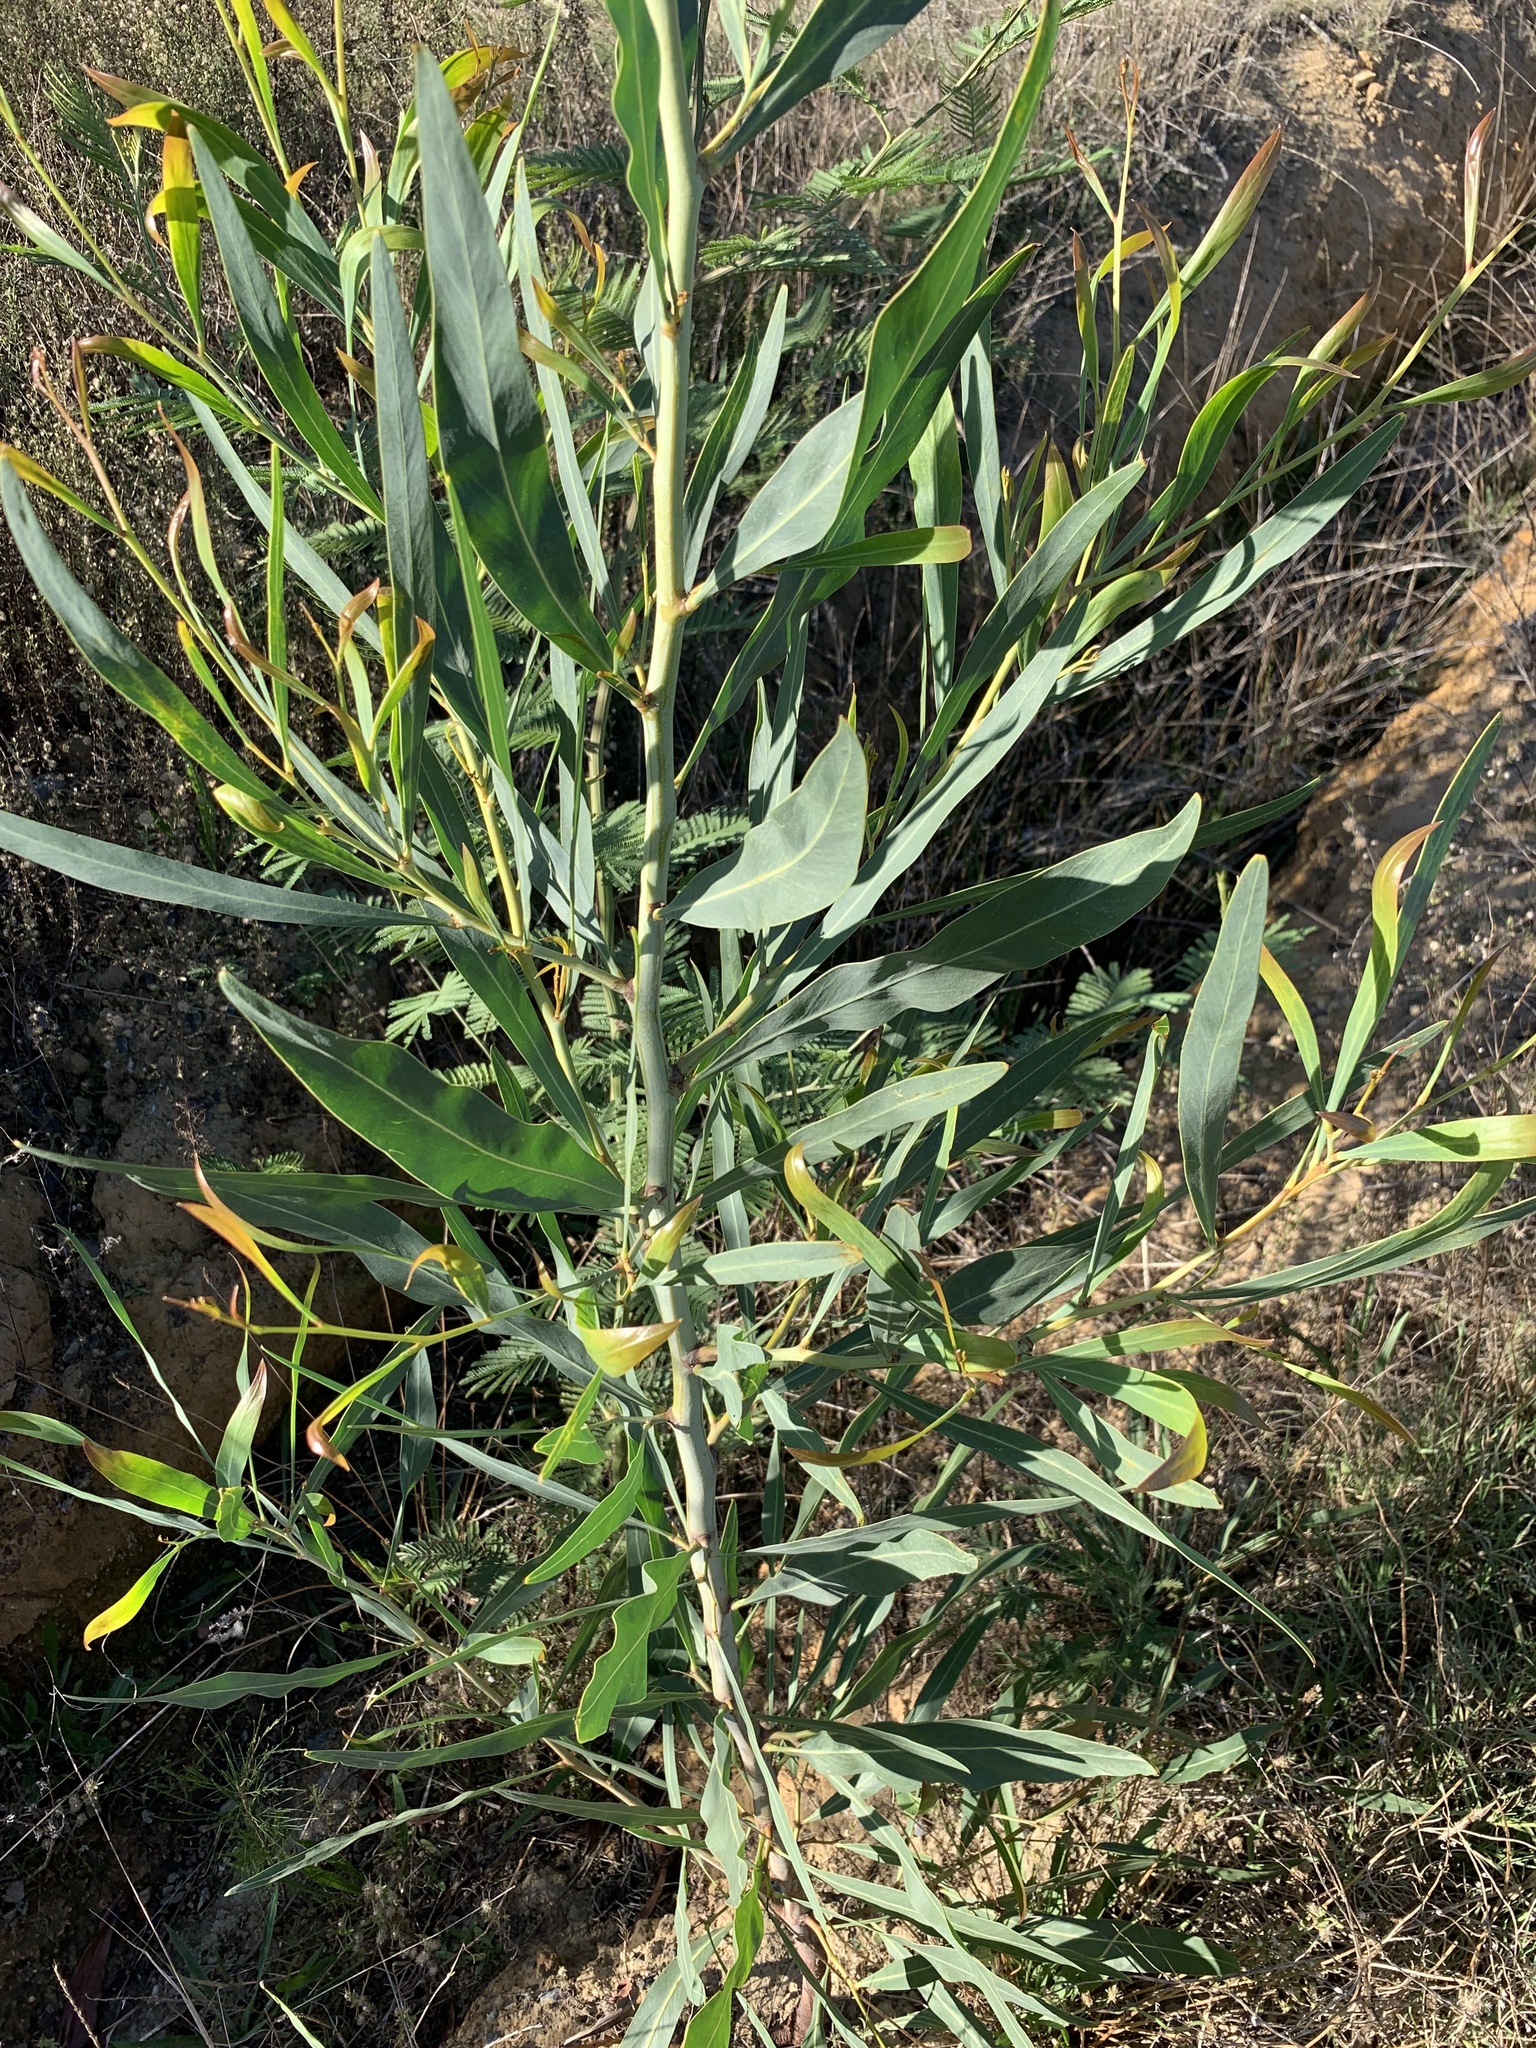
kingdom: Plantae
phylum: Tracheophyta
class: Magnoliopsida
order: Fabales
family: Fabaceae
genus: Acacia
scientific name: Acacia saligna
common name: Orange wattle
